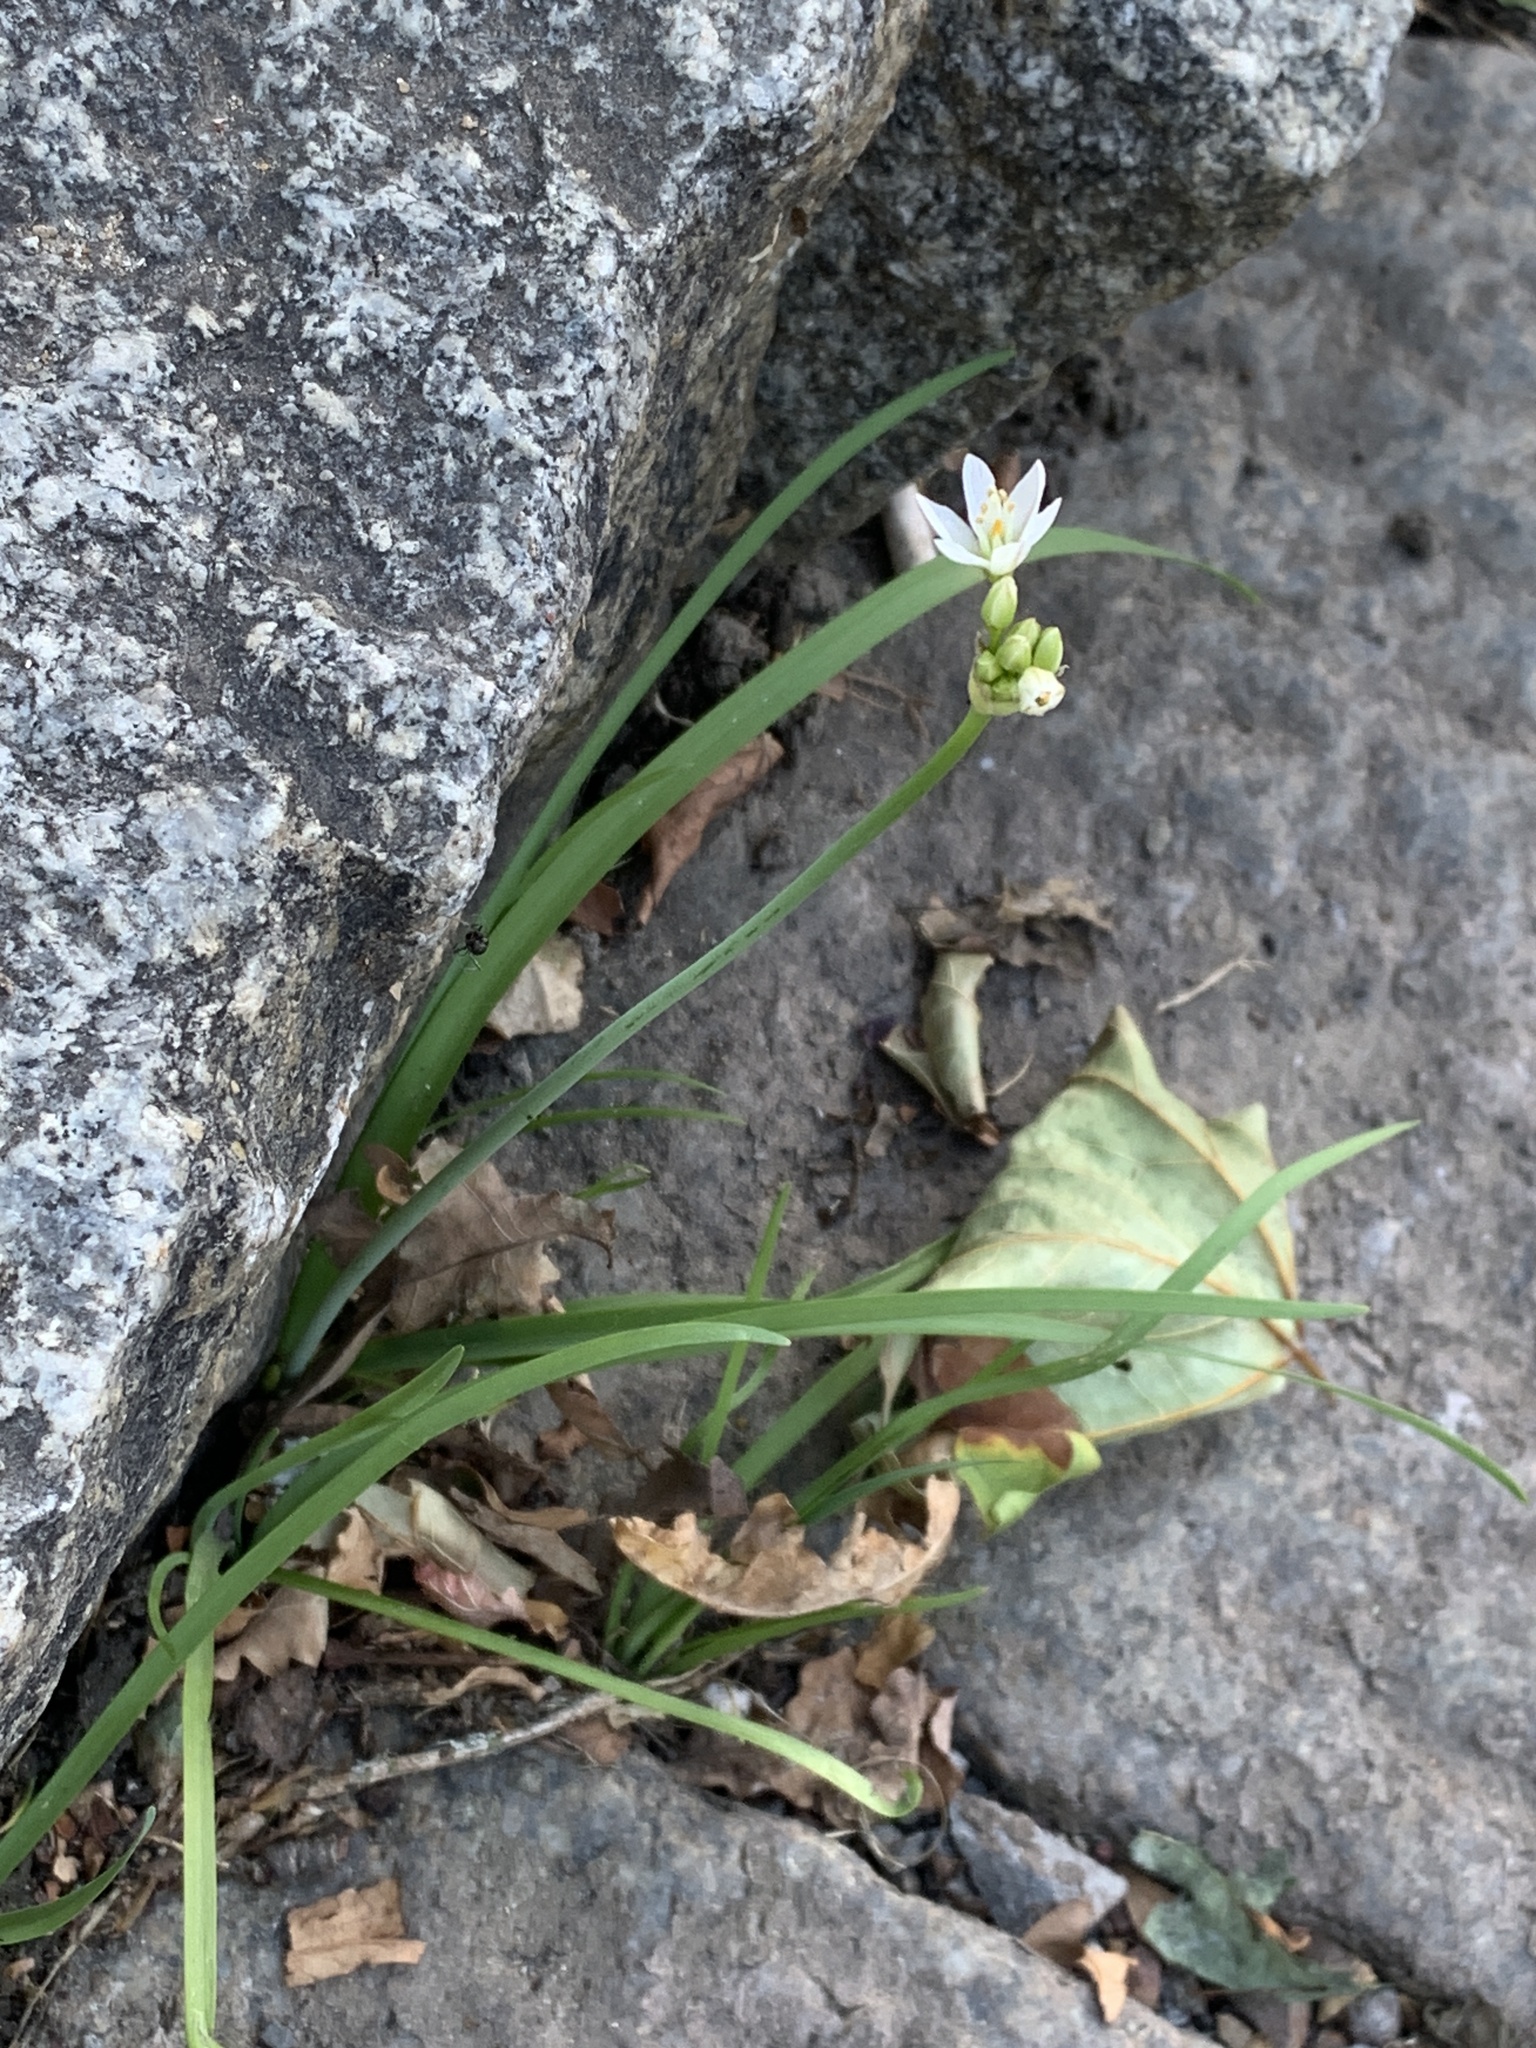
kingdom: Plantae
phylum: Tracheophyta
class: Liliopsida
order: Asparagales
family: Amaryllidaceae
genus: Nothoscordum
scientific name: Nothoscordum gracile
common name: Slender false garlic
